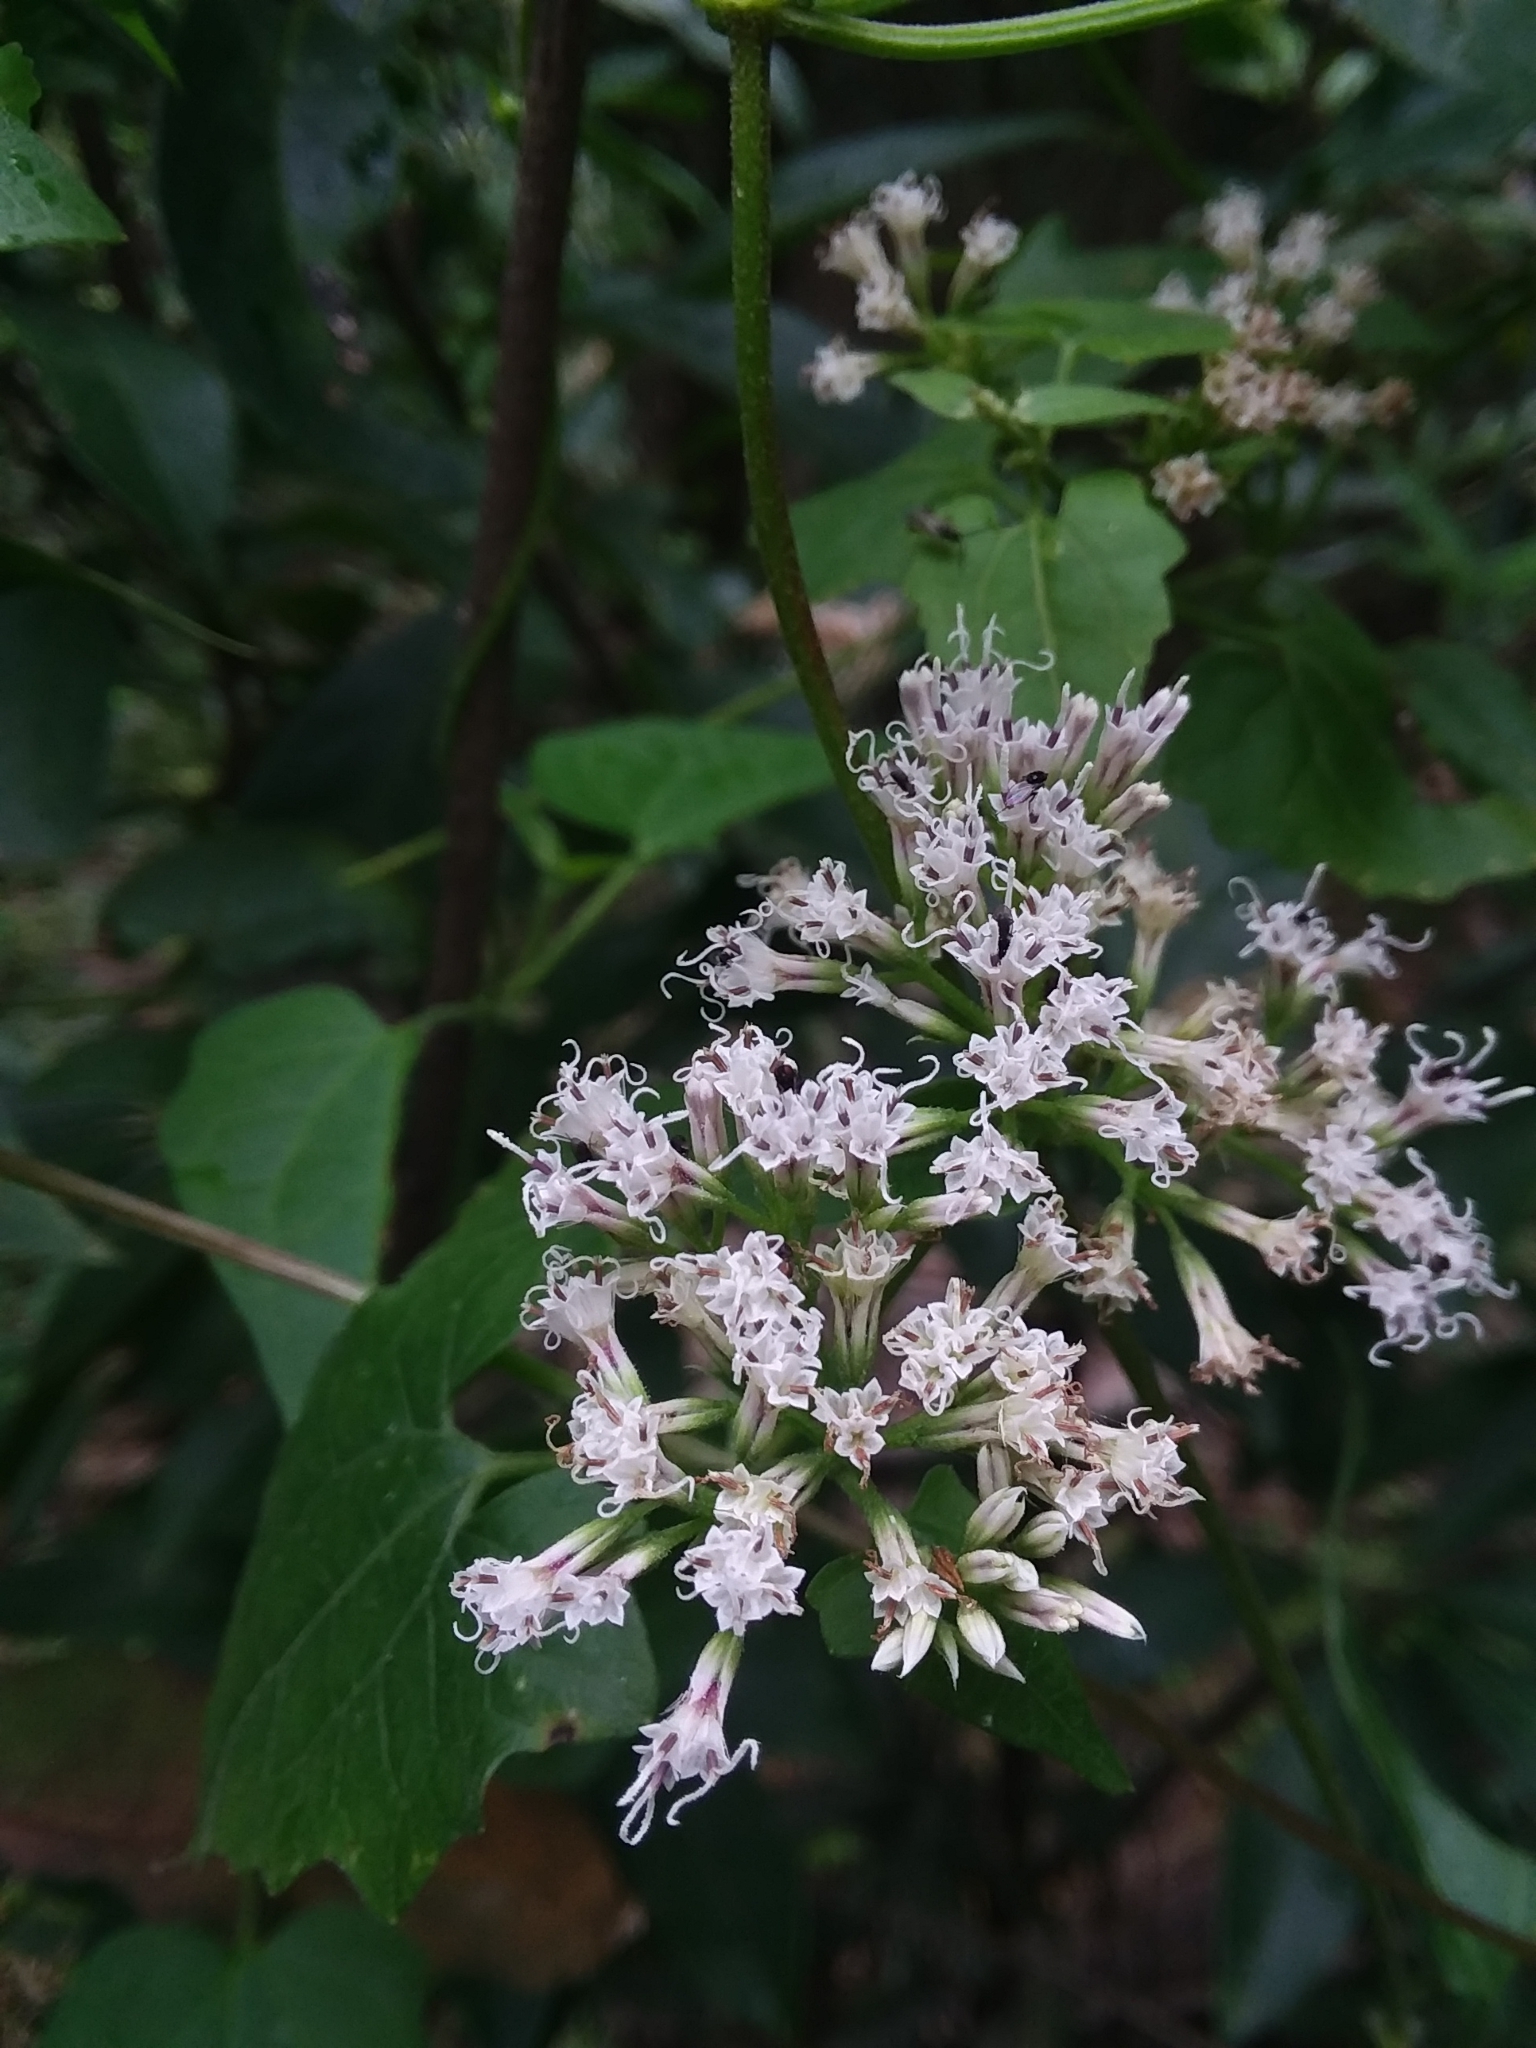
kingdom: Plantae
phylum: Tracheophyta
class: Magnoliopsida
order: Asterales
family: Asteraceae
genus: Mikania
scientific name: Mikania scandens
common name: Climbing hempvine
